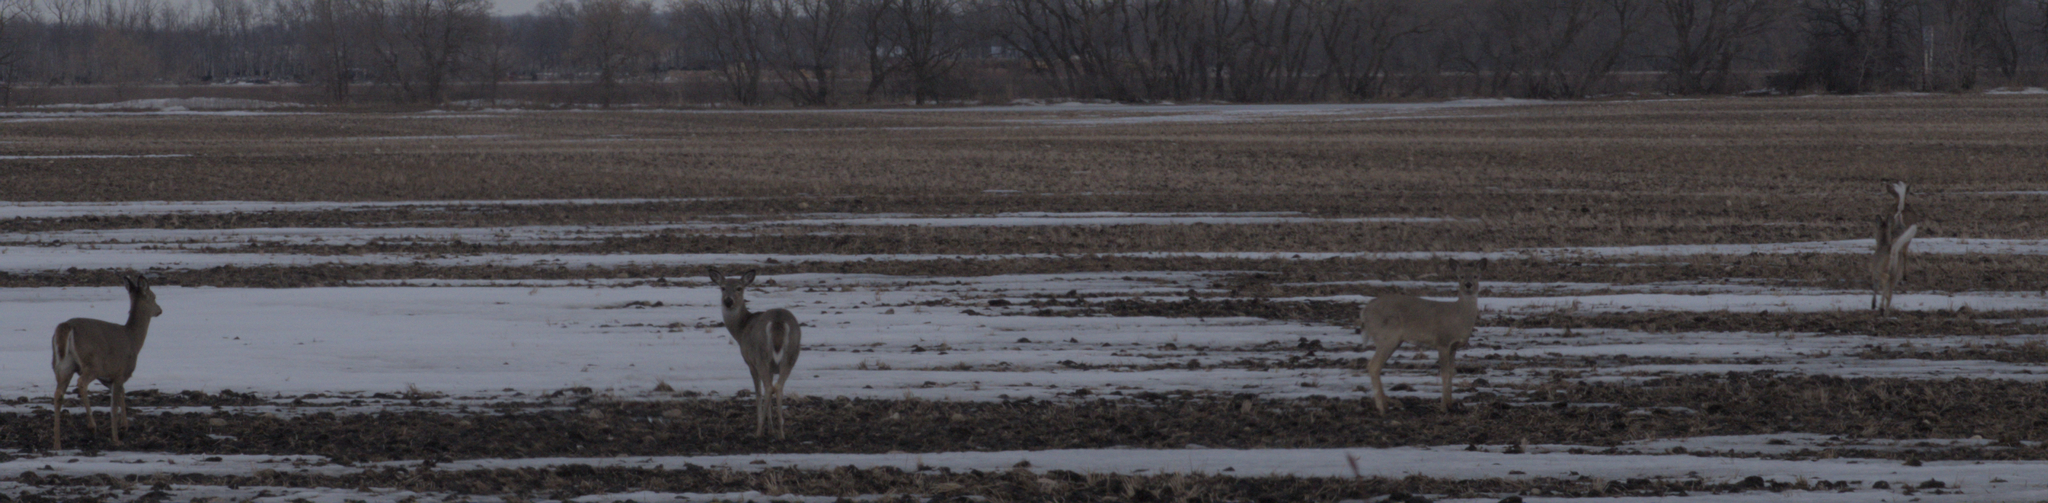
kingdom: Animalia
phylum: Chordata
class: Mammalia
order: Artiodactyla
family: Cervidae
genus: Odocoileus
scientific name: Odocoileus virginianus
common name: White-tailed deer
